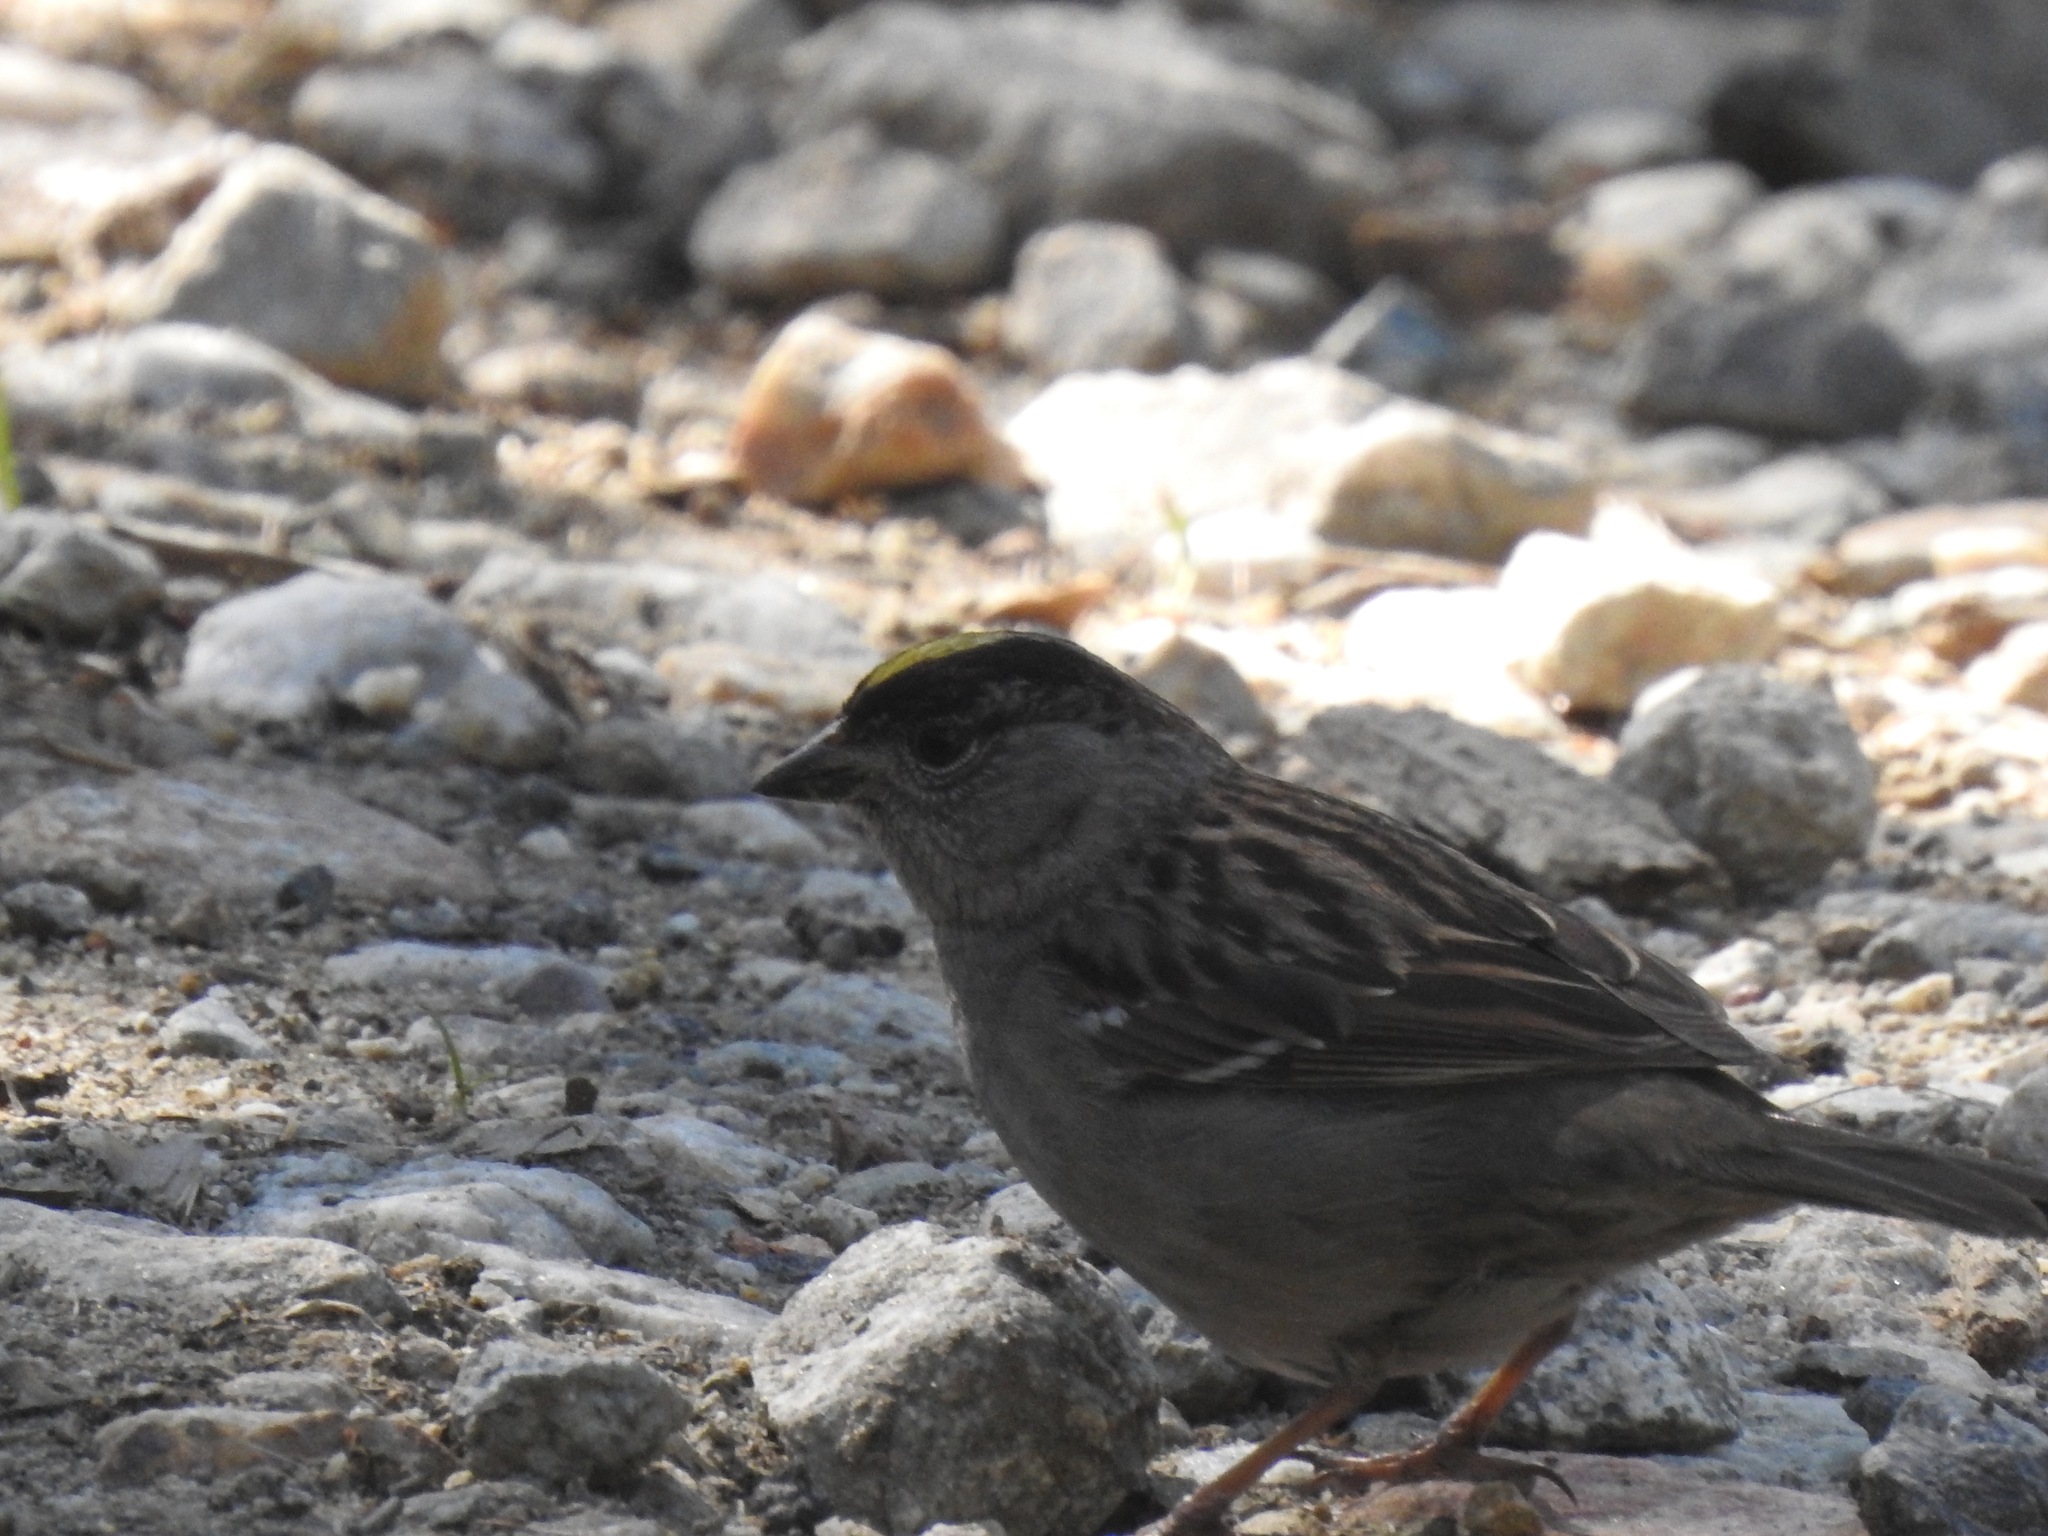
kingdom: Animalia
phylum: Chordata
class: Aves
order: Passeriformes
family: Passerellidae
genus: Zonotrichia
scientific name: Zonotrichia atricapilla
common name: Golden-crowned sparrow
